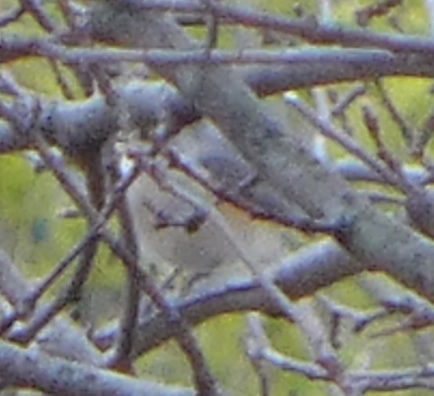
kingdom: Animalia
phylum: Chordata
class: Aves
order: Passeriformes
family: Paridae
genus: Baeolophus
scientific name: Baeolophus bicolor
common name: Tufted titmouse
